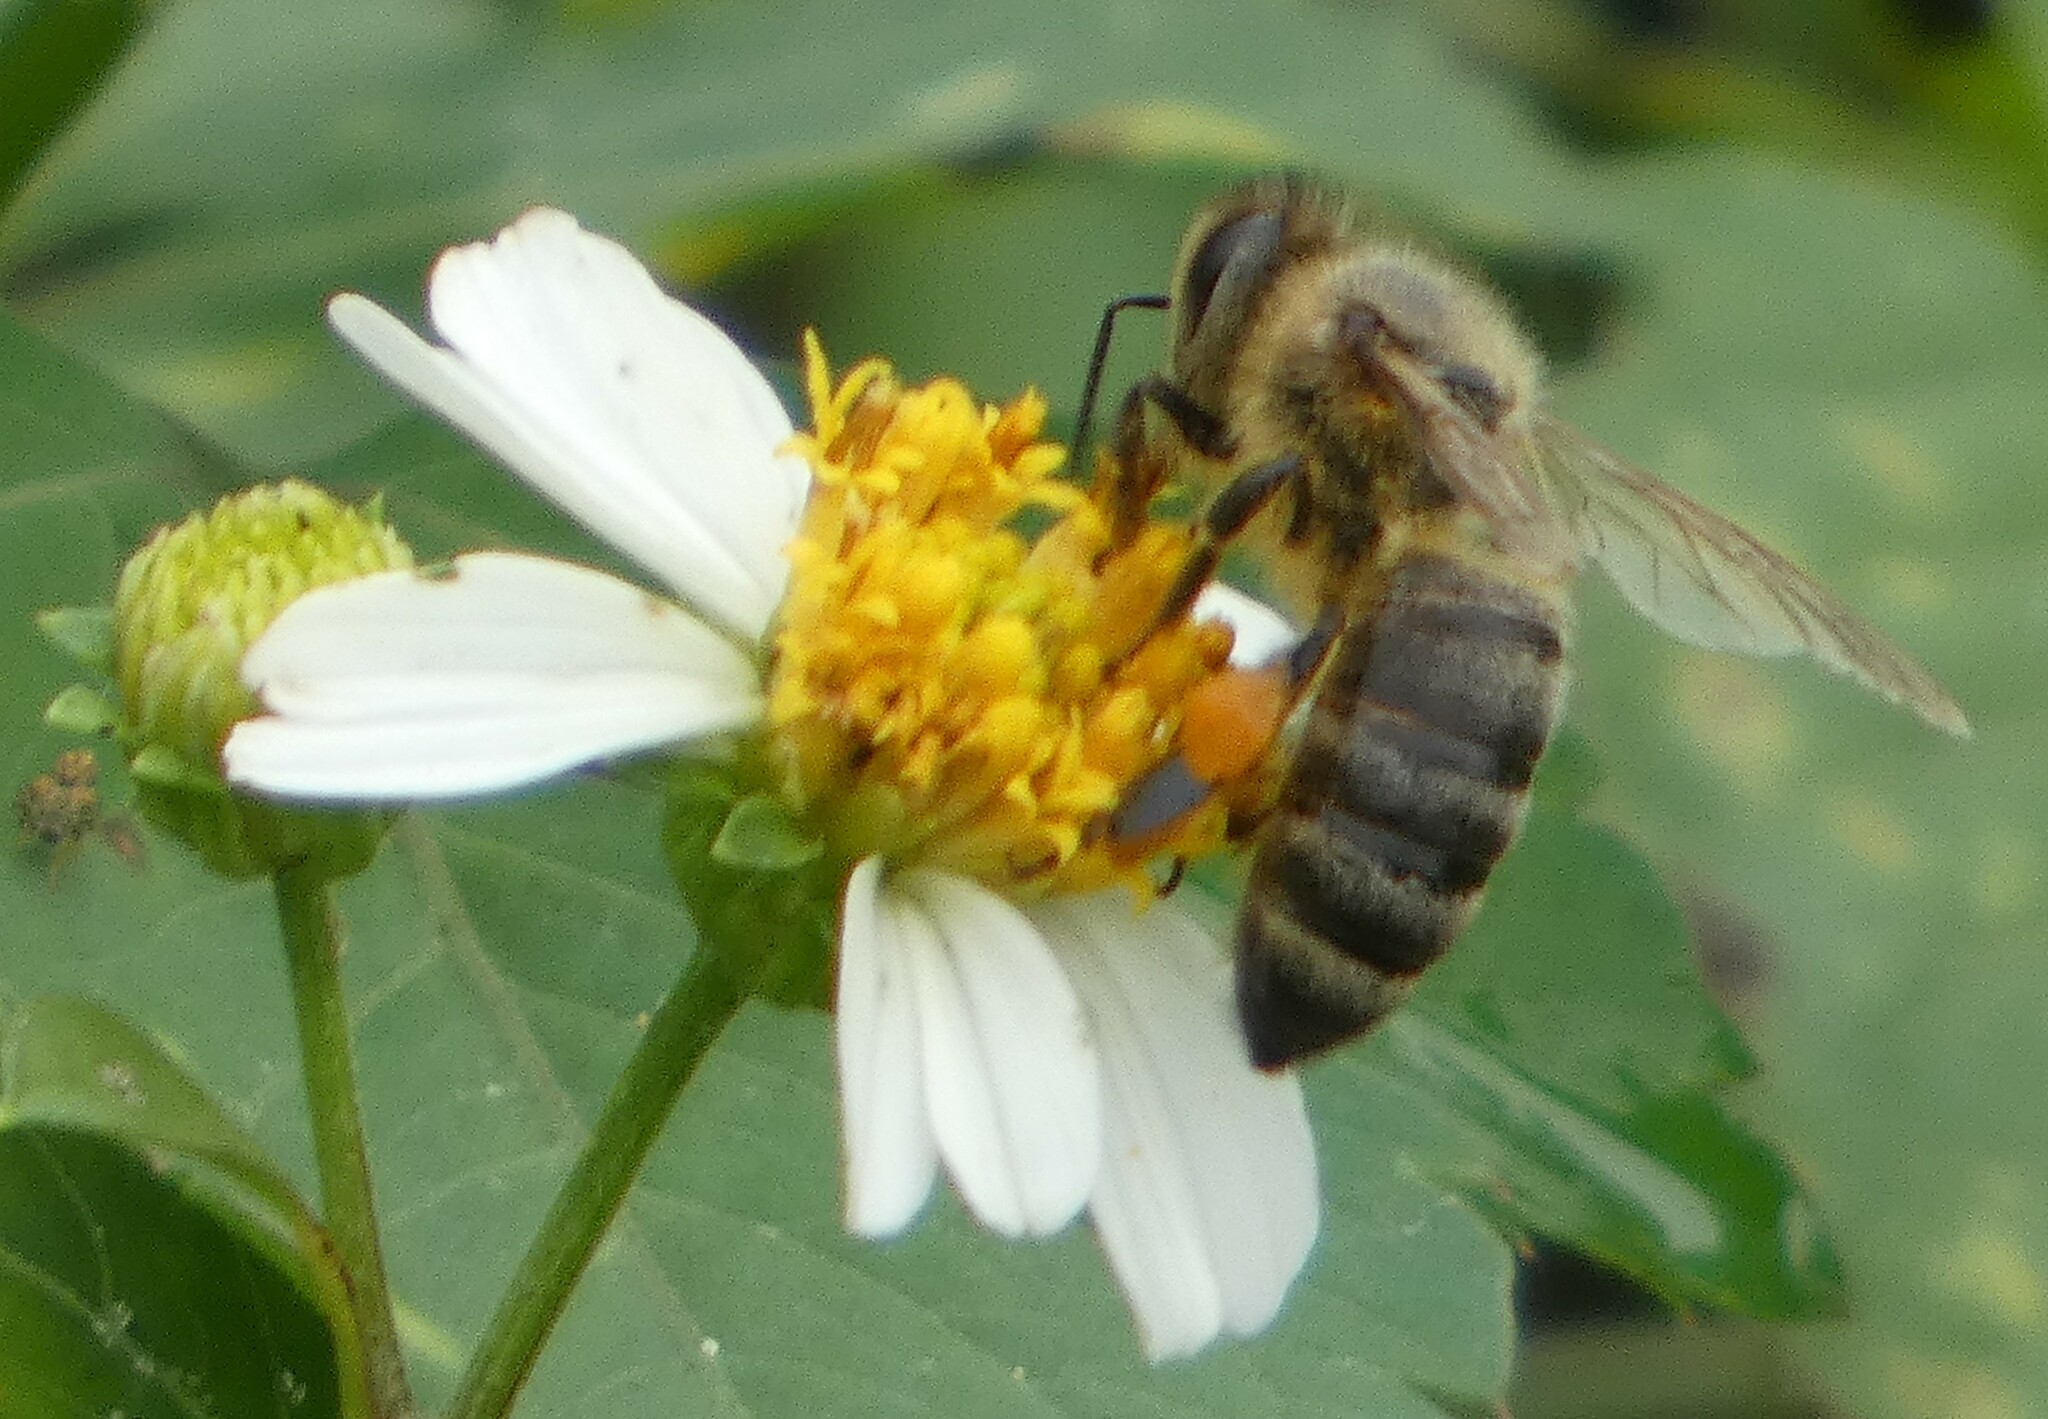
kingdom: Animalia
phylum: Arthropoda
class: Insecta
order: Hymenoptera
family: Apidae
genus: Apis
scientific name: Apis mellifera
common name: Honey bee
